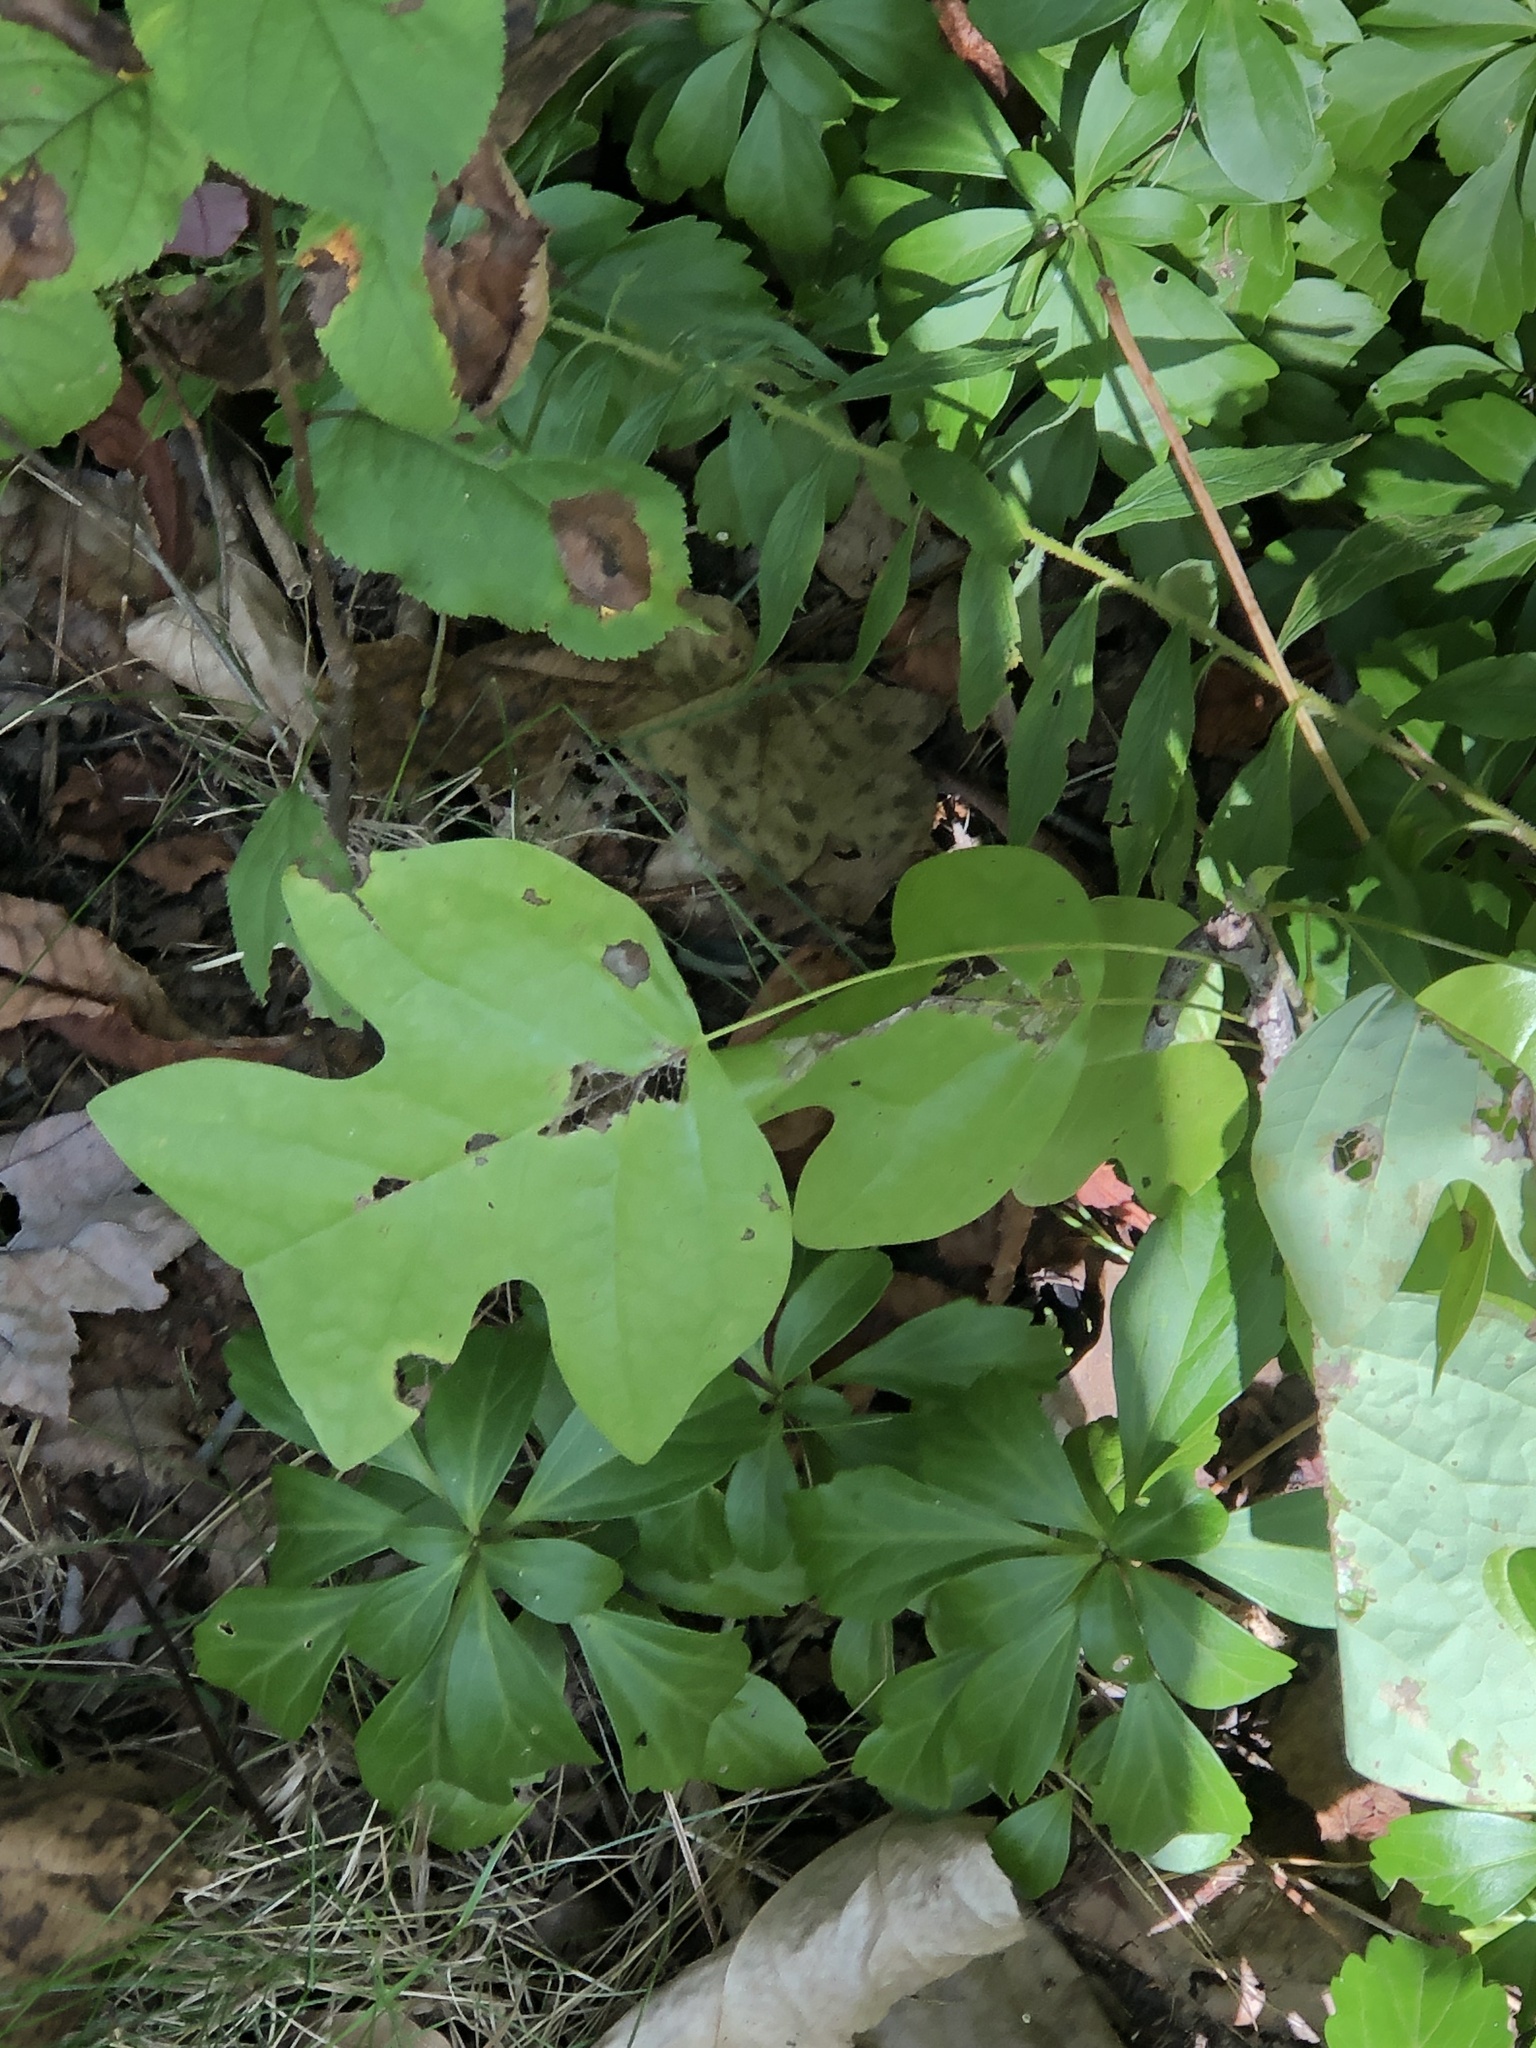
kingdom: Plantae
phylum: Tracheophyta
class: Magnoliopsida
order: Magnoliales
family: Magnoliaceae
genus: Liriodendron
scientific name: Liriodendron tulipifera
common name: Tulip tree
